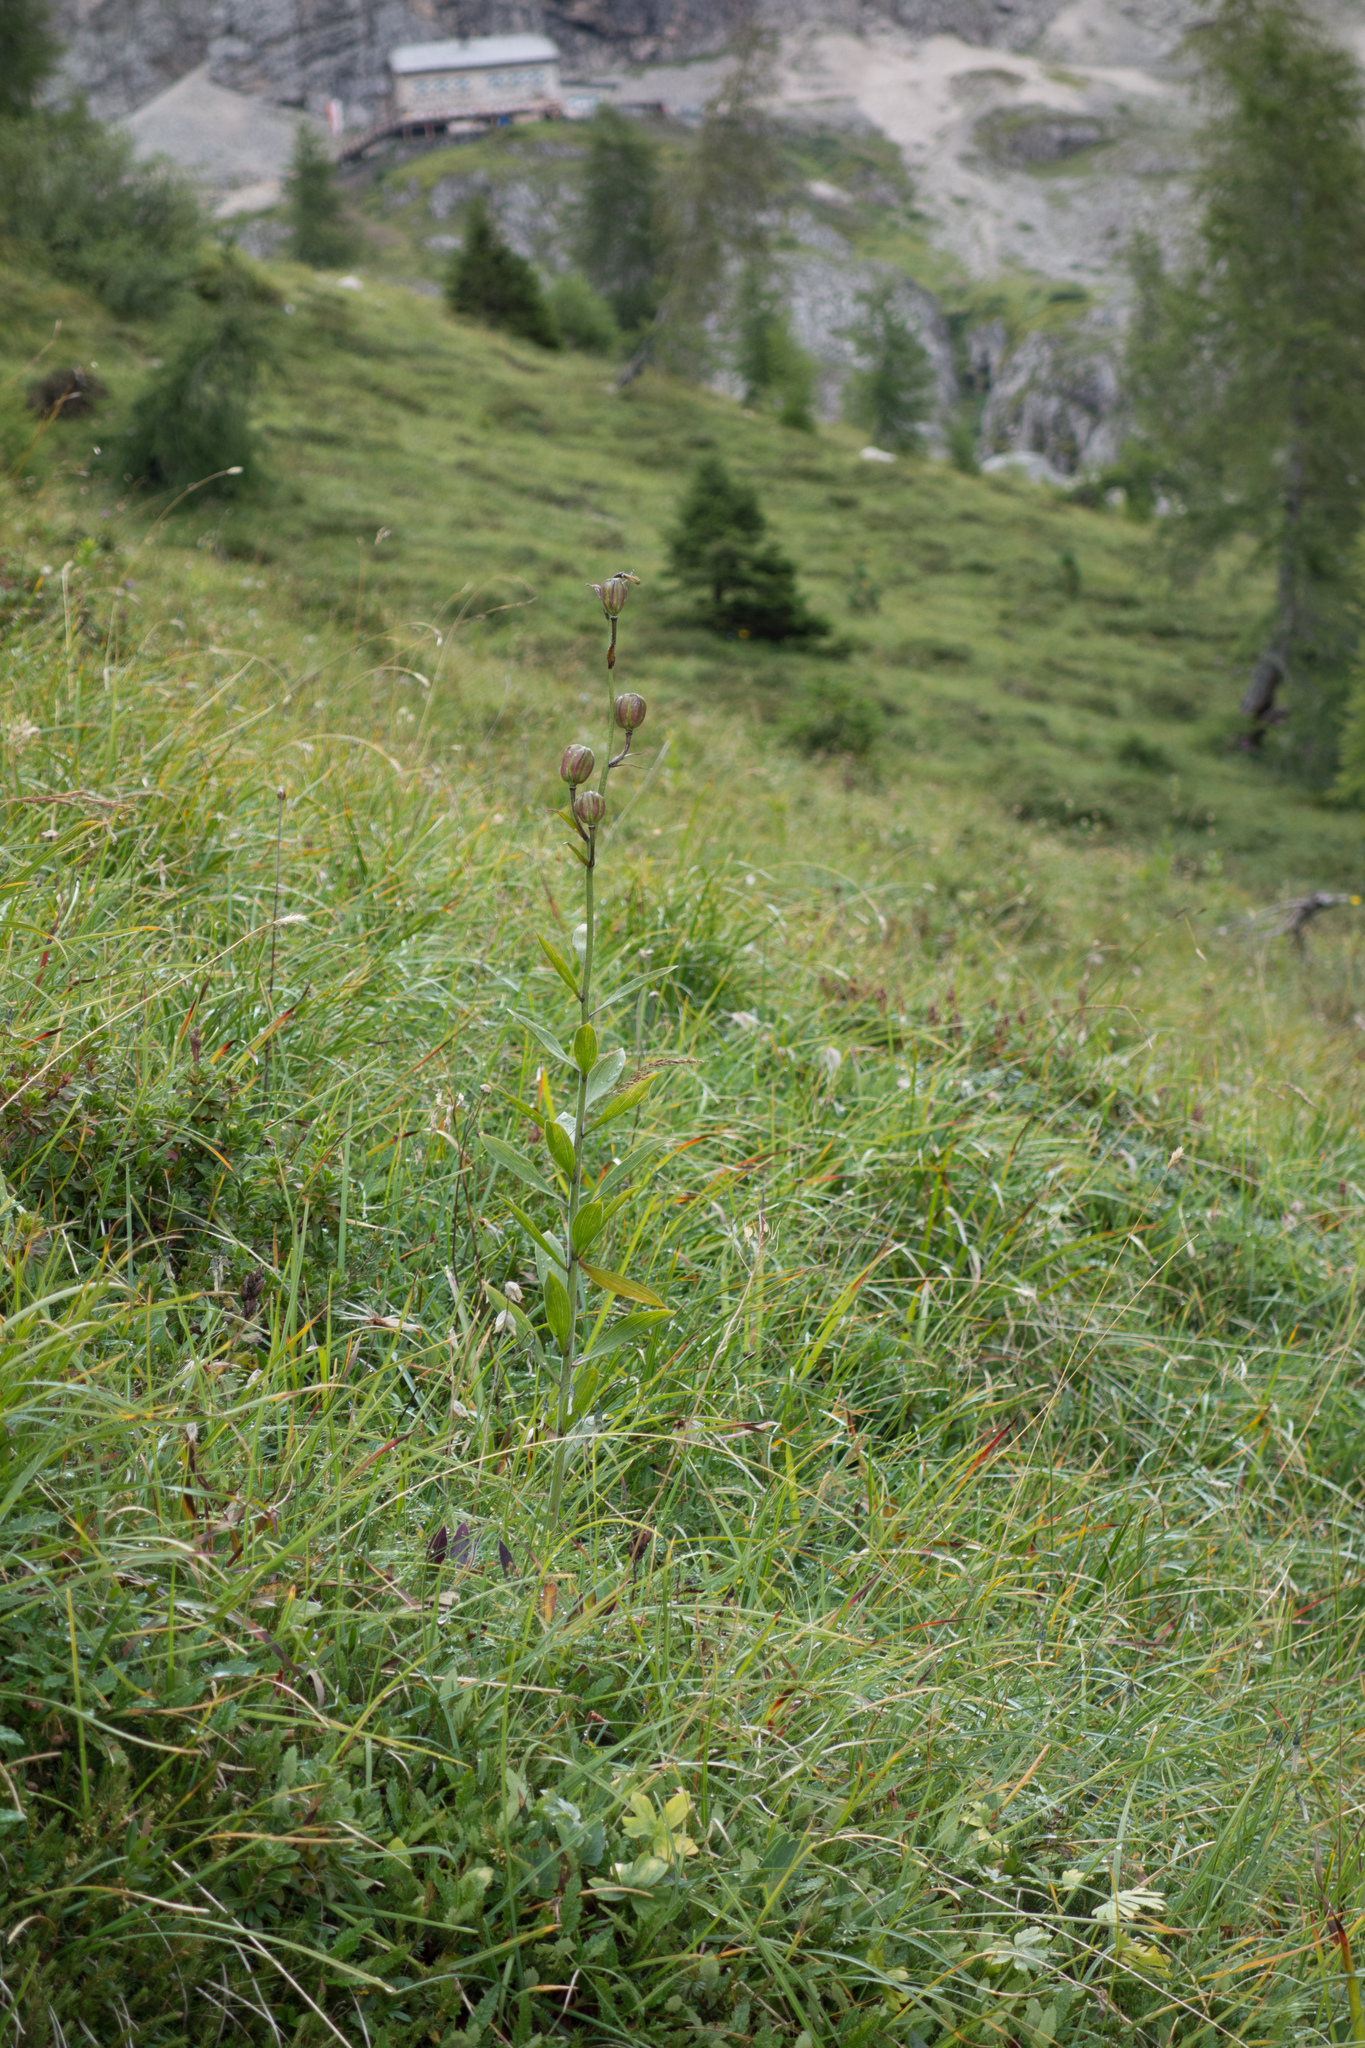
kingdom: Plantae
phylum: Tracheophyta
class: Liliopsida
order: Liliales
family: Liliaceae
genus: Lilium
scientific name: Lilium martagon
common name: Martagon lily
